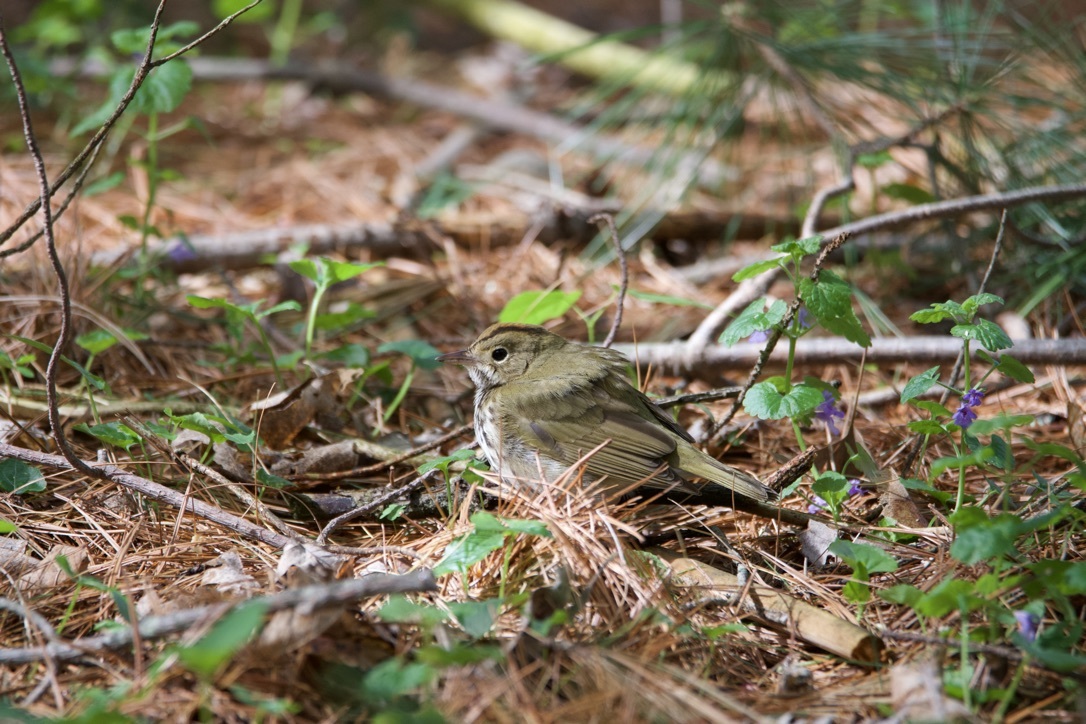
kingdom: Animalia
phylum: Chordata
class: Aves
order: Passeriformes
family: Parulidae
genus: Seiurus
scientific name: Seiurus aurocapilla
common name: Ovenbird
